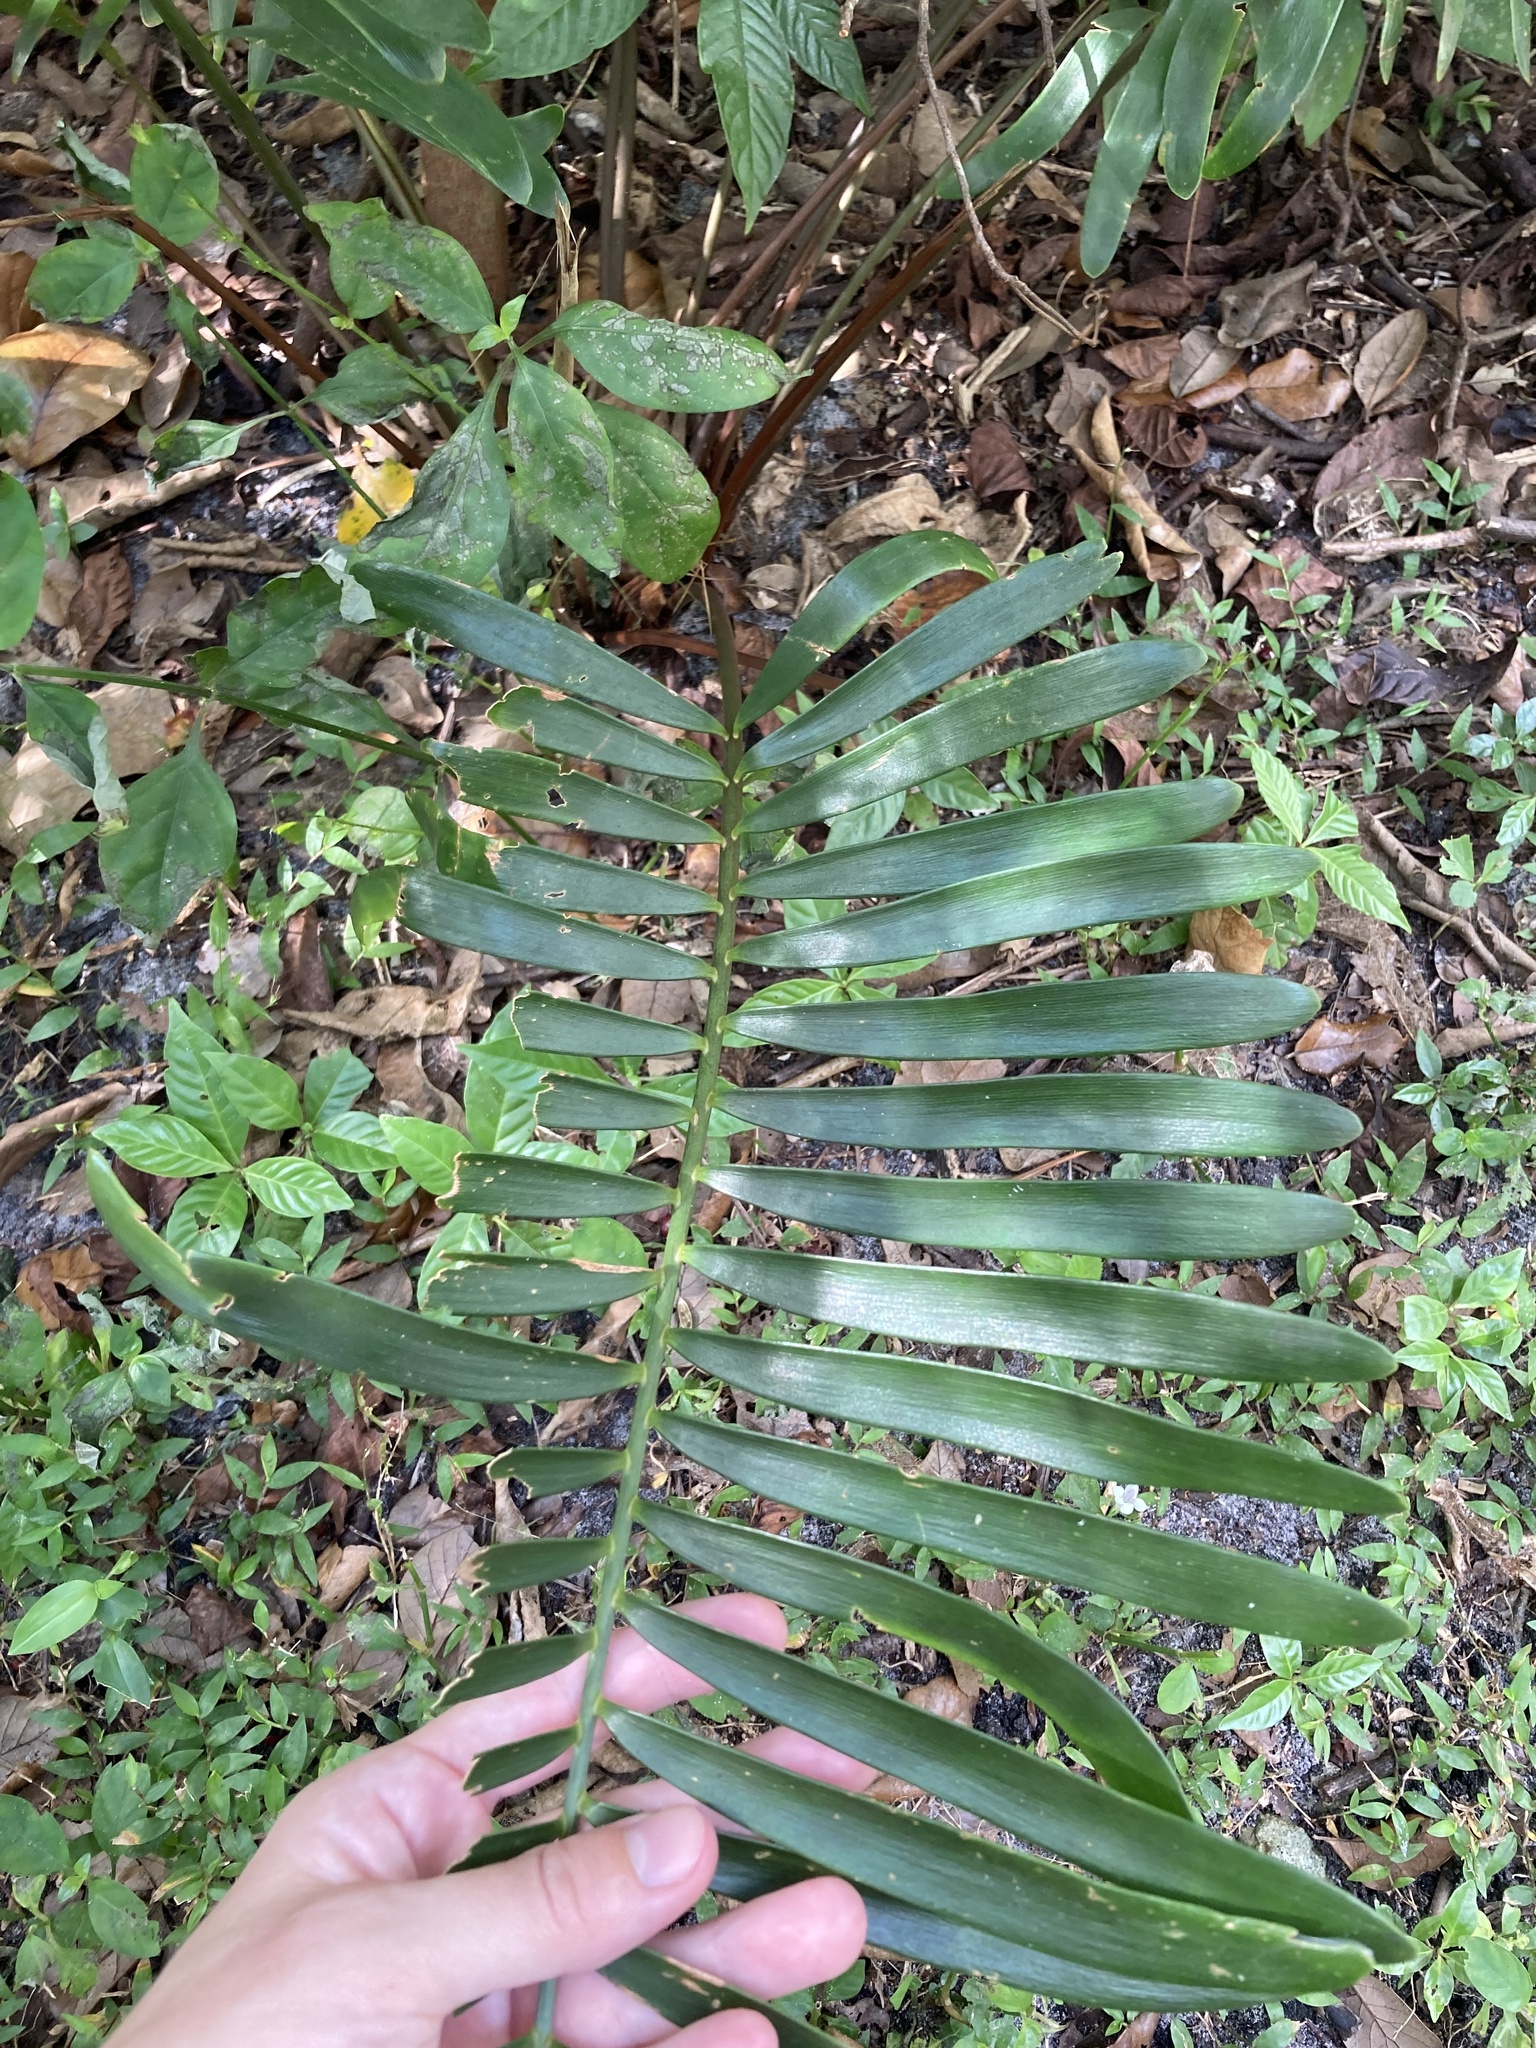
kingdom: Plantae
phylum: Tracheophyta
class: Cycadopsida
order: Cycadales
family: Zamiaceae
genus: Zamia
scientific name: Zamia integrifolia
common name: Florida arrowroot
